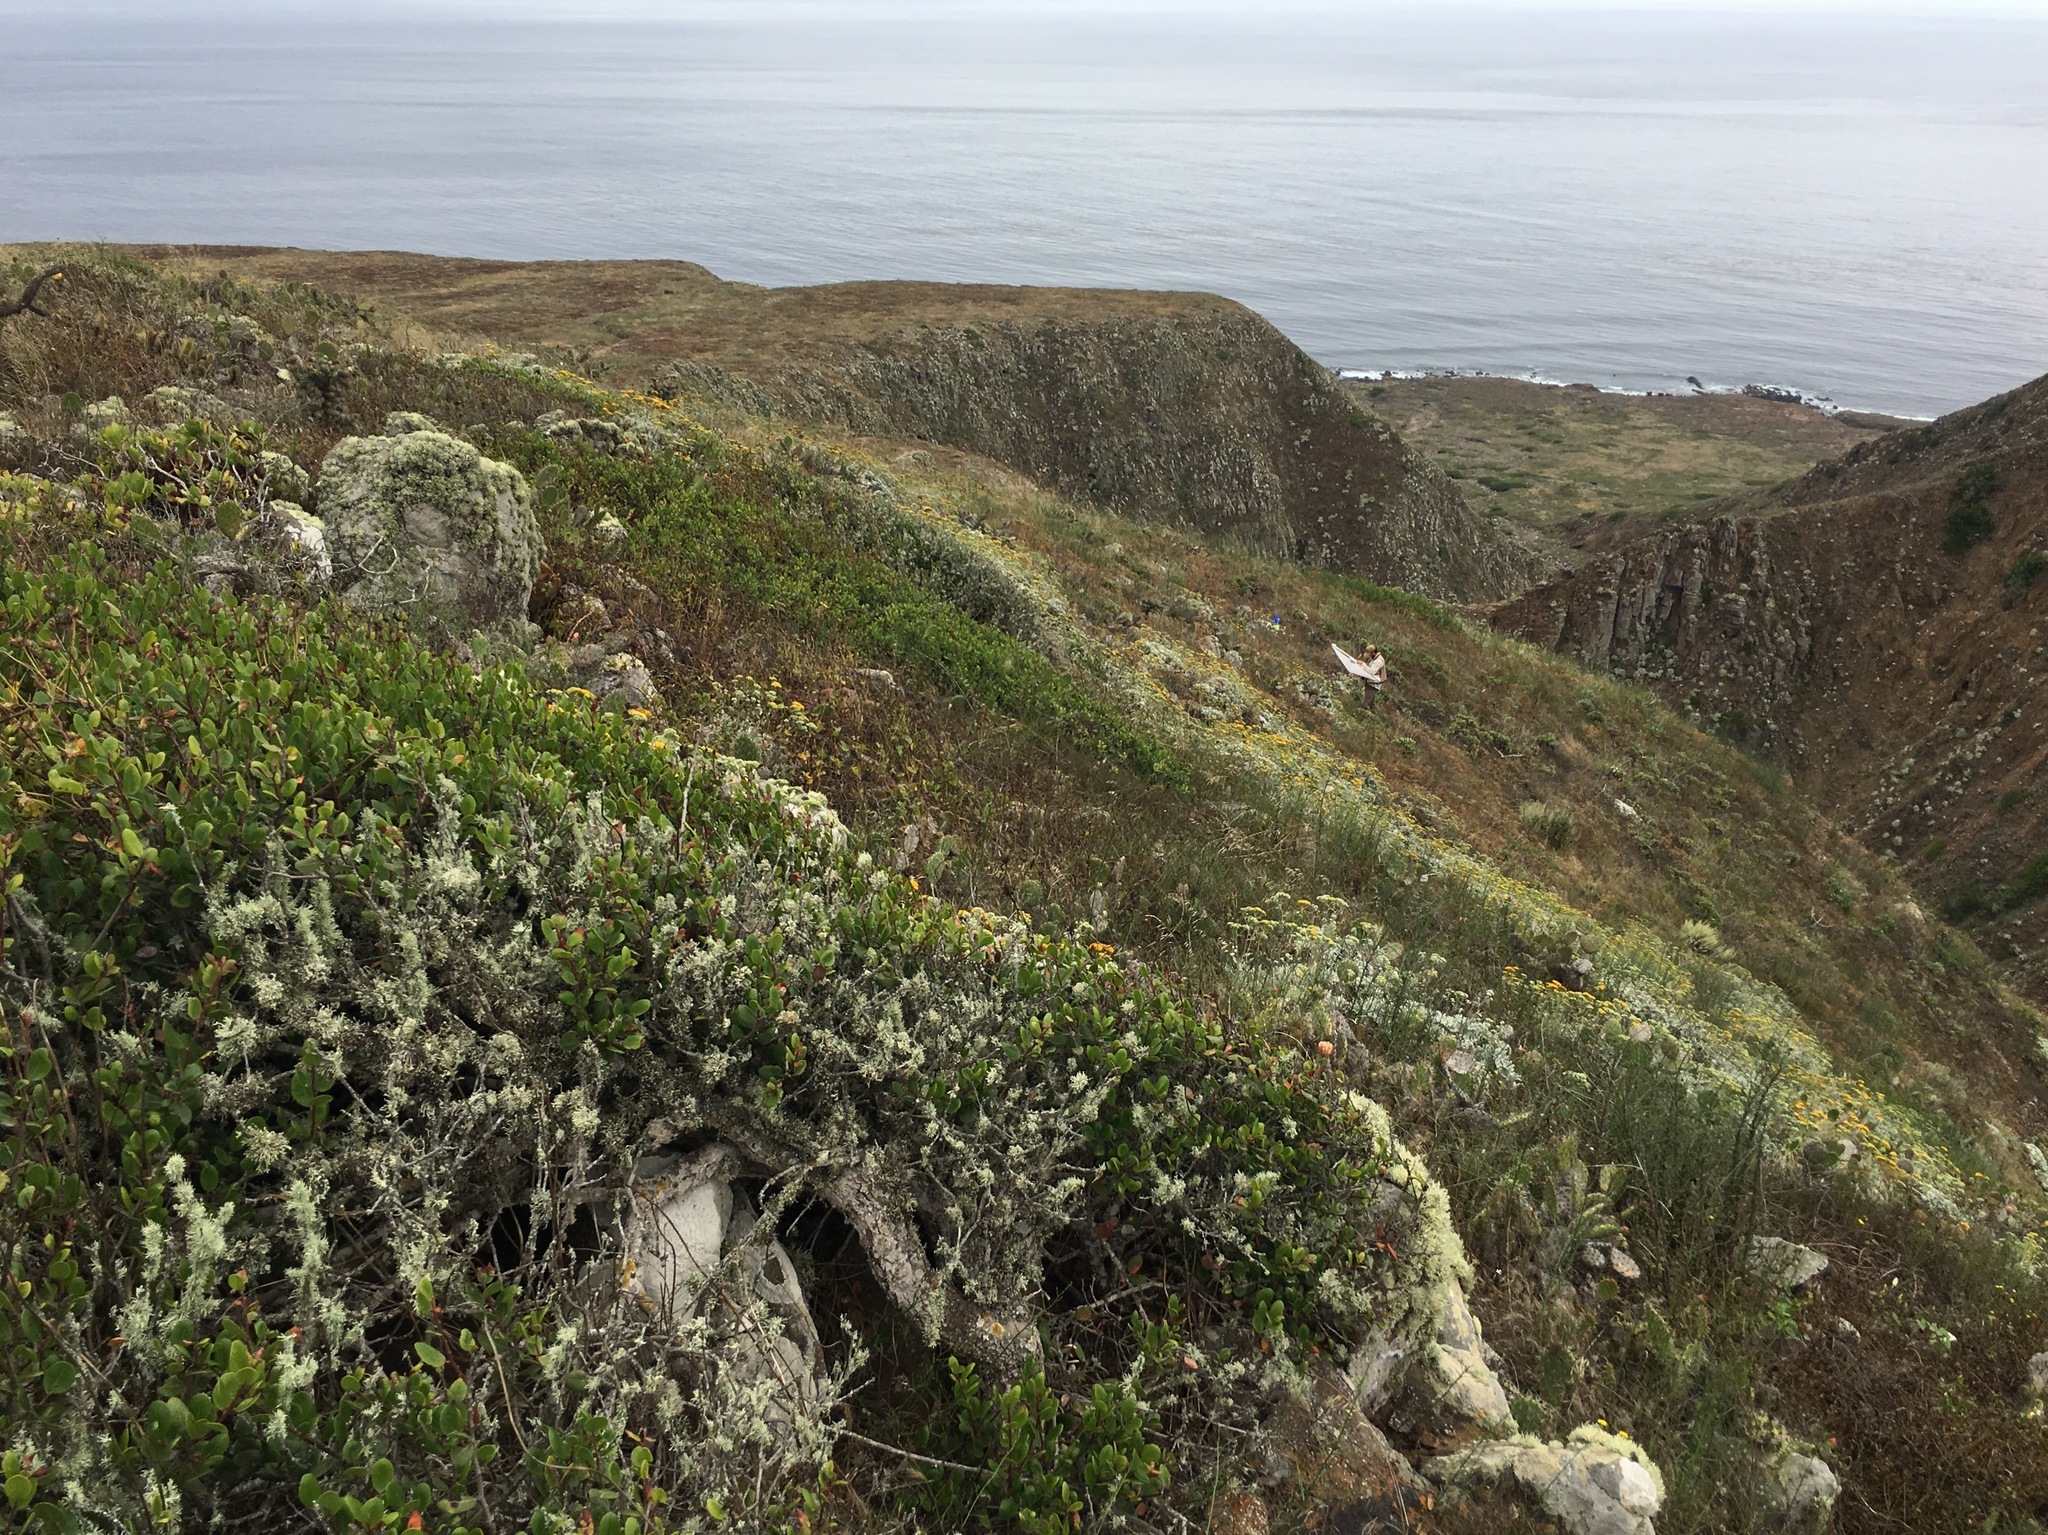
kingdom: Plantae
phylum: Tracheophyta
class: Magnoliopsida
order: Sapindales
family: Anacardiaceae
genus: Rhus
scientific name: Rhus integrifolia
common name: Lemonade sumac
